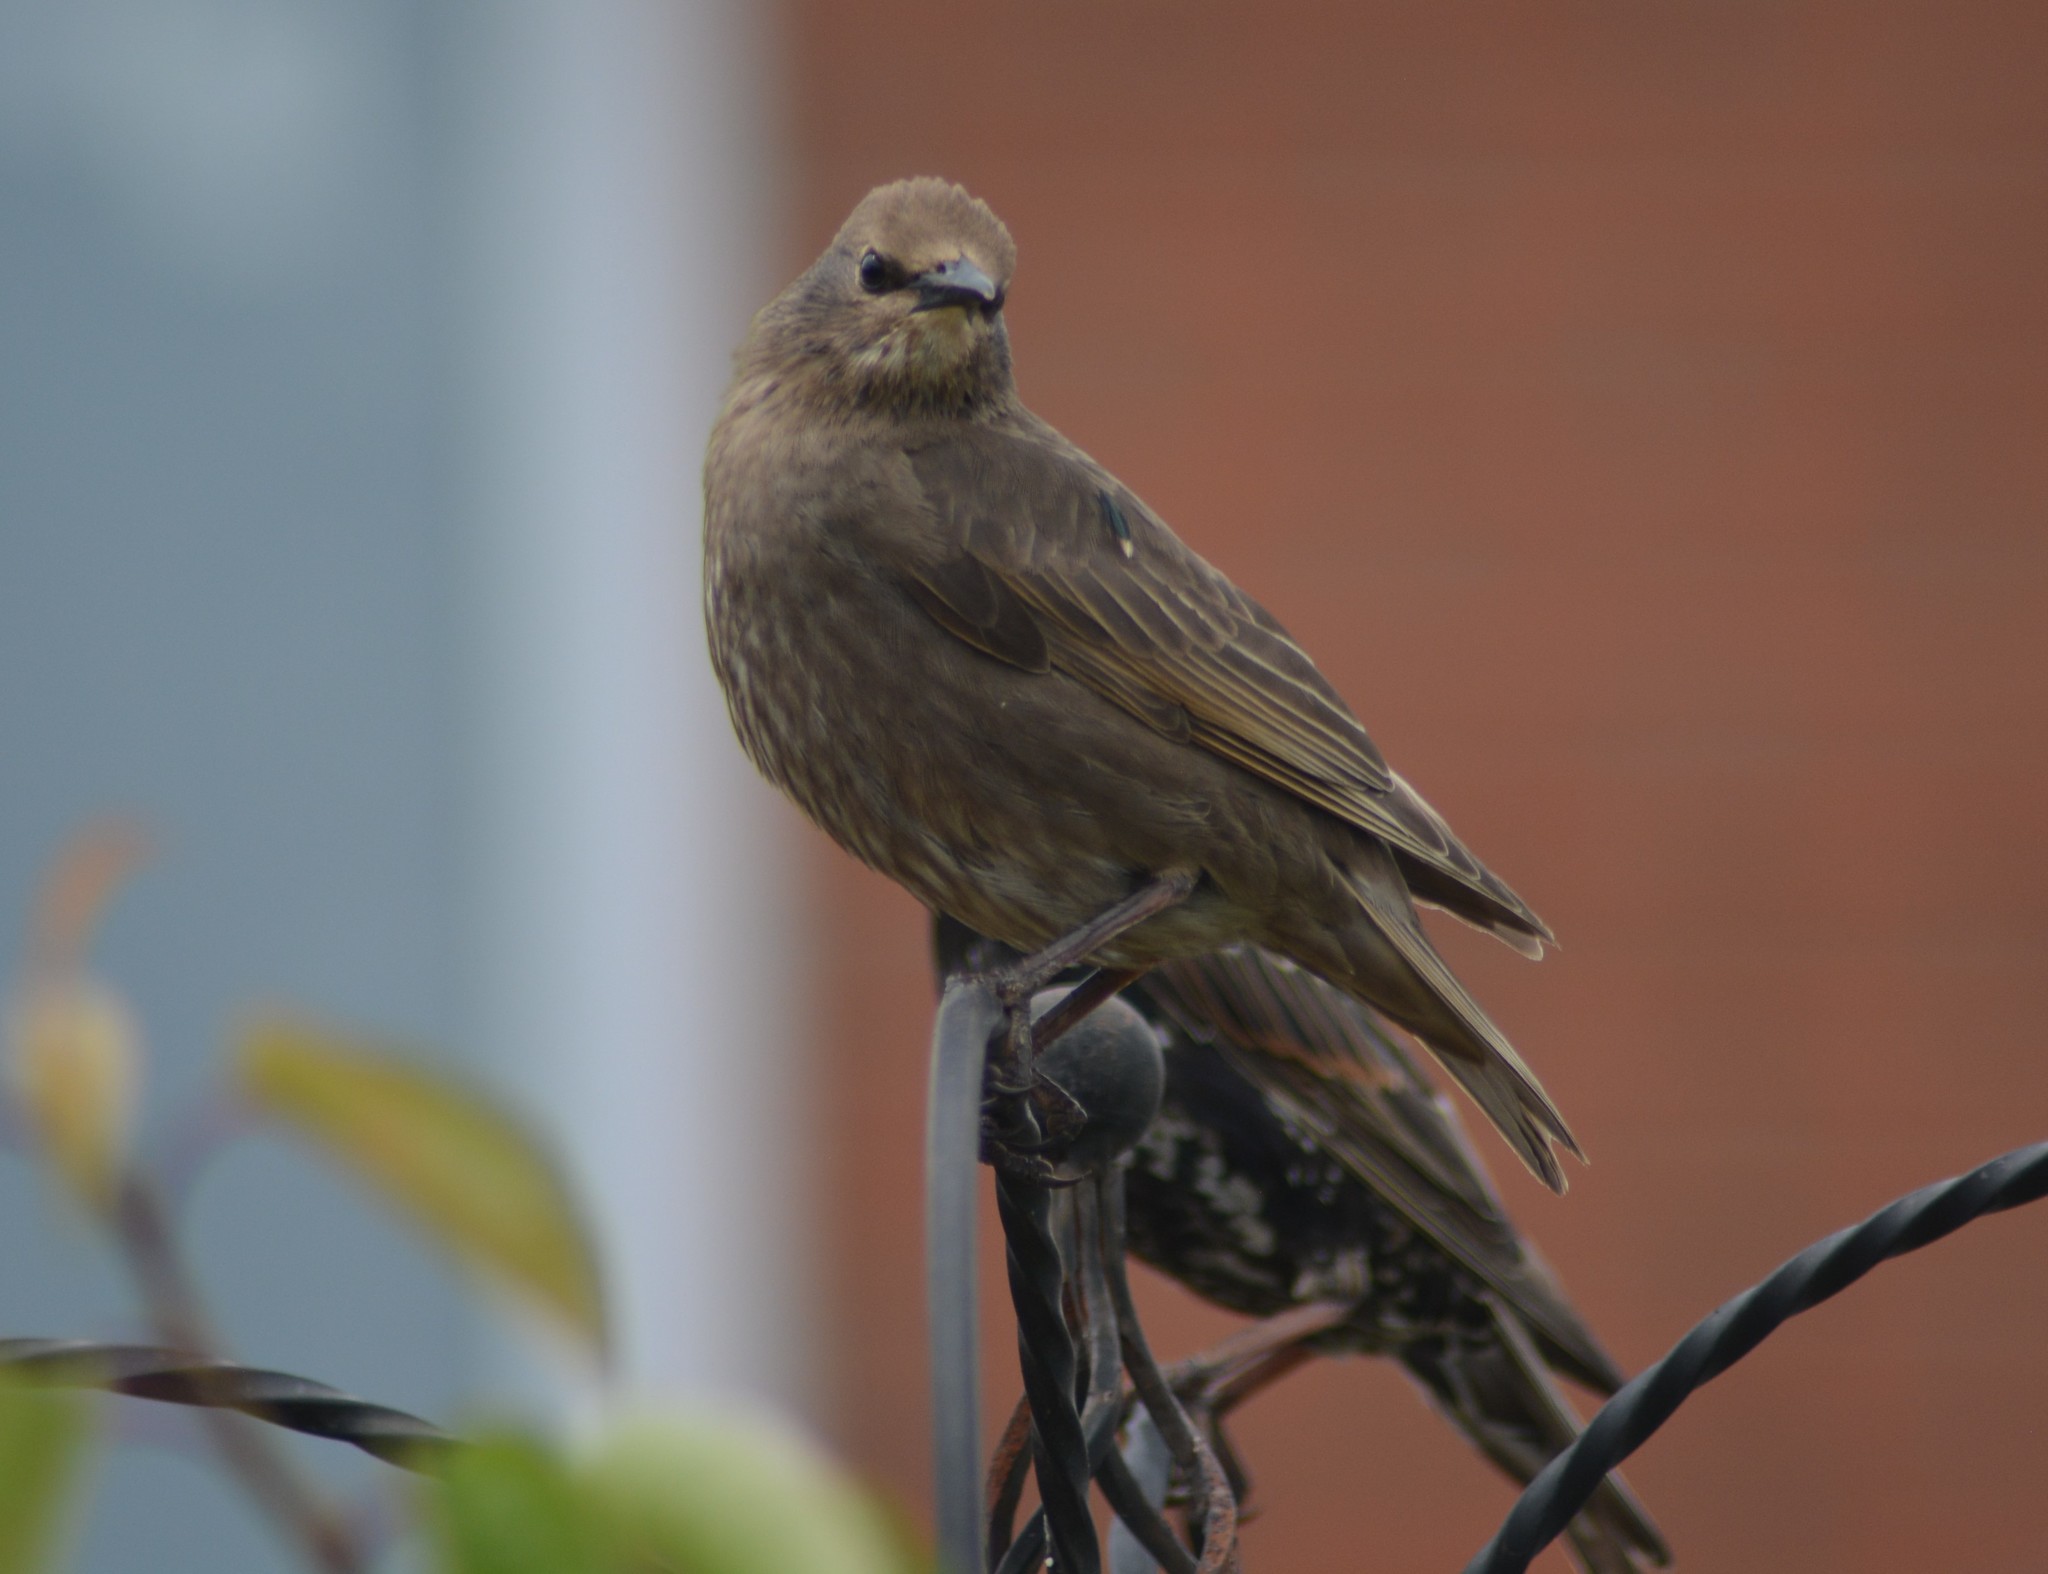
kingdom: Animalia
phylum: Chordata
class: Aves
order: Passeriformes
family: Sturnidae
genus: Sturnus
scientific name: Sturnus vulgaris
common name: Common starling
